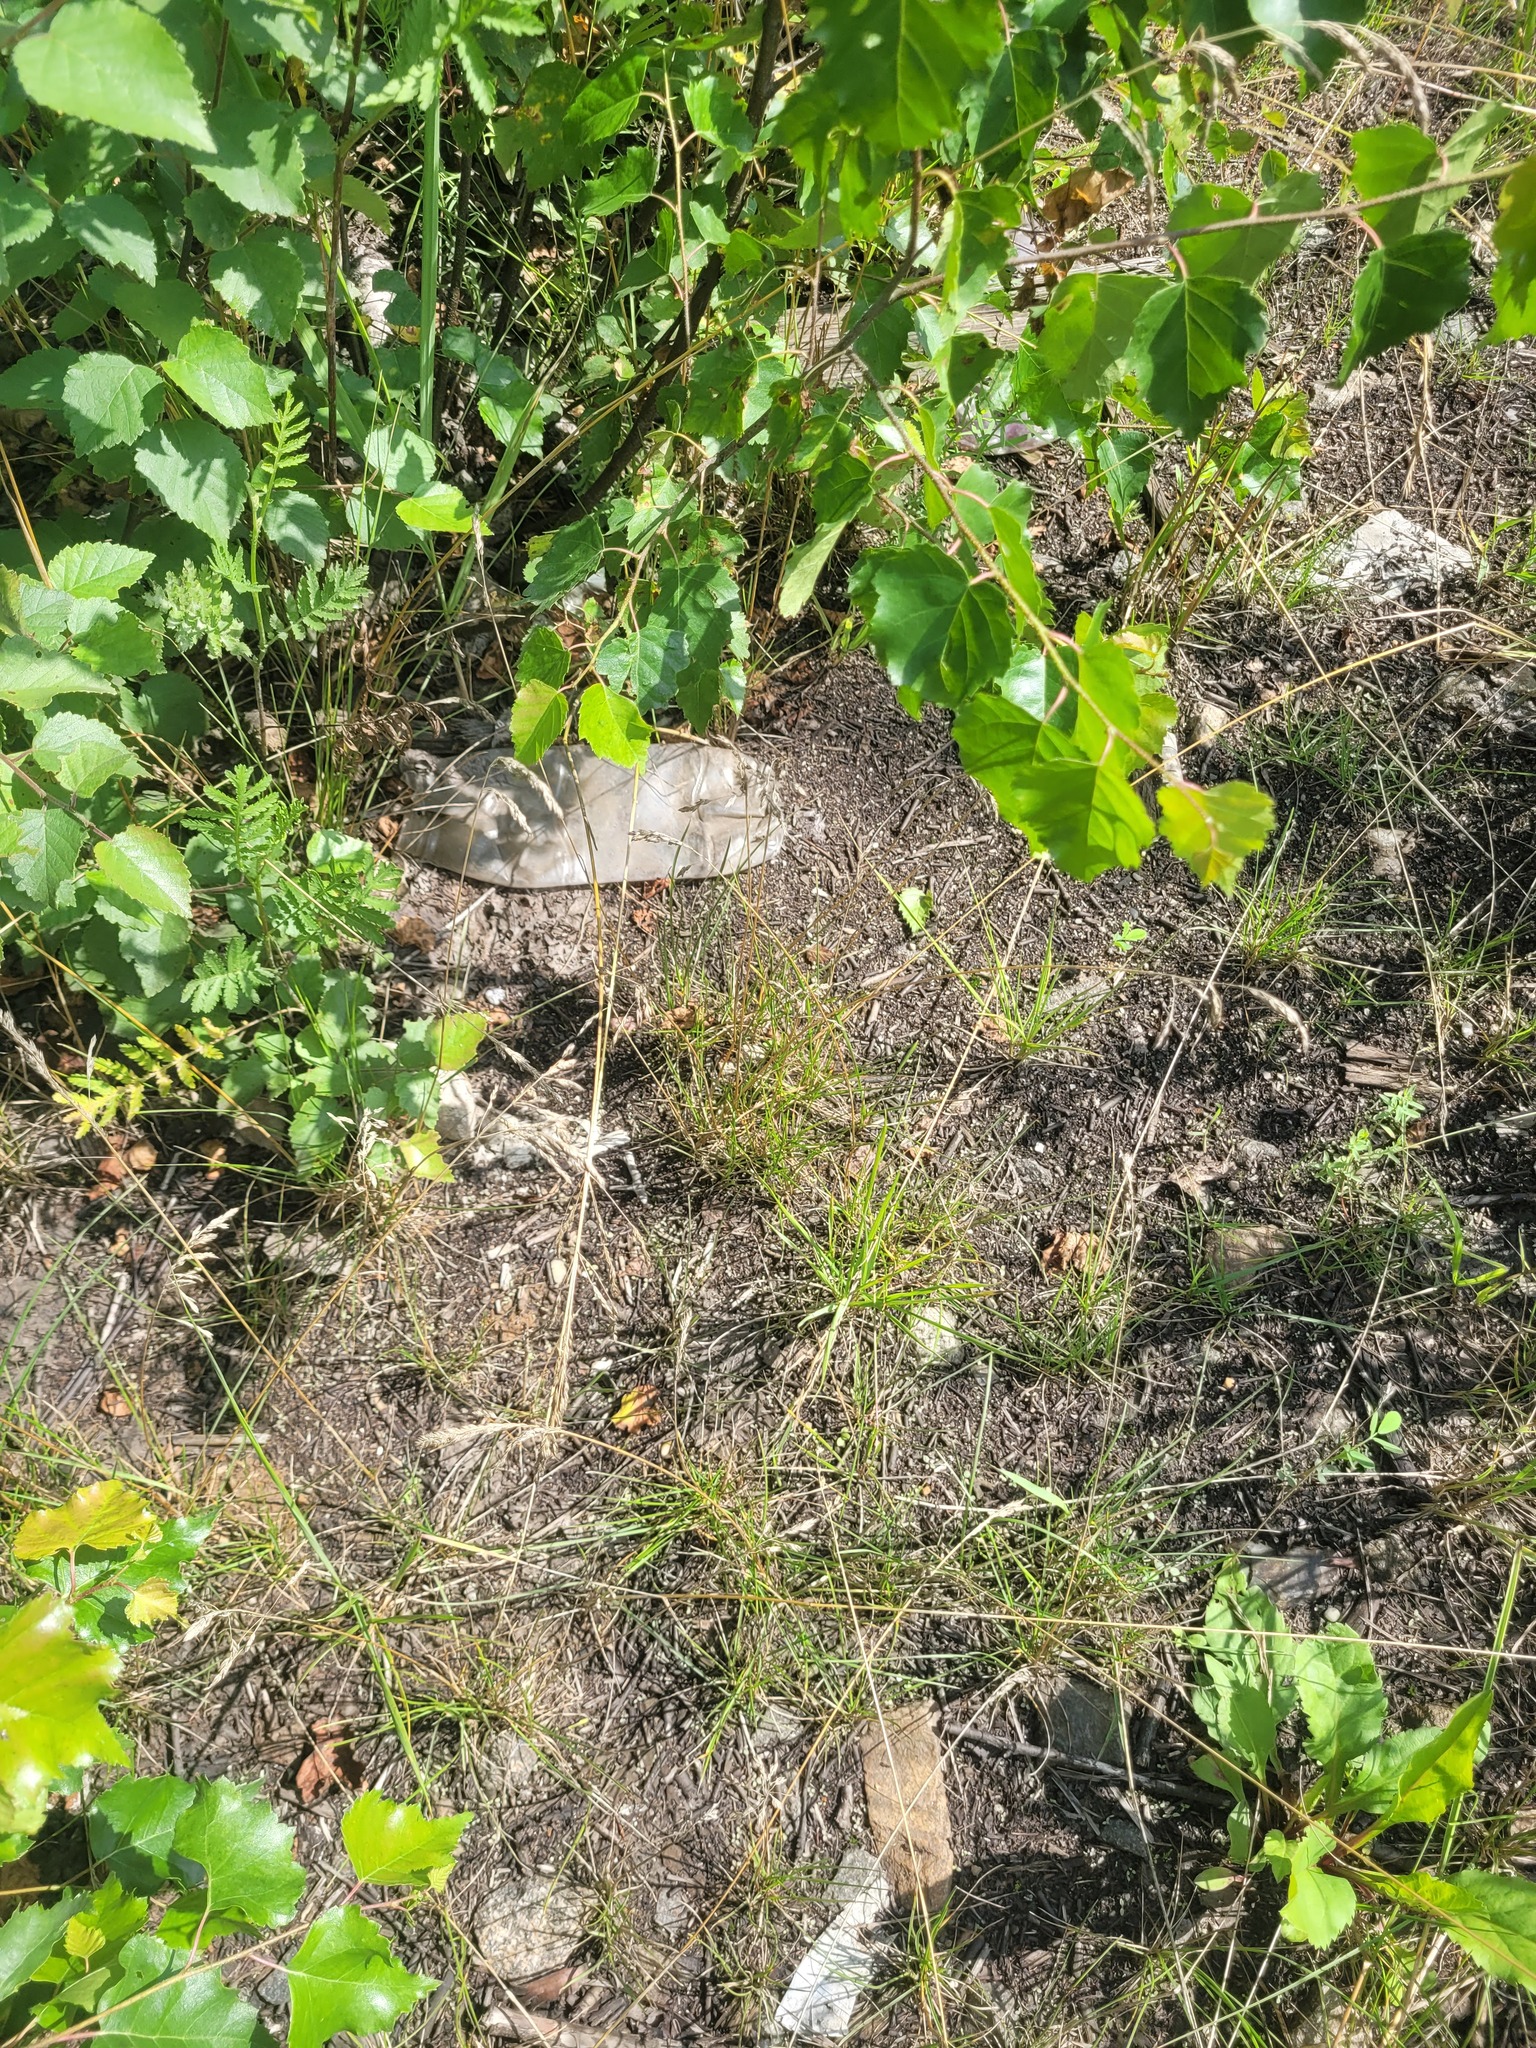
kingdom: Plantae
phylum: Tracheophyta
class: Liliopsida
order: Poales
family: Poaceae
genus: Poa
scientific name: Poa angustifolia
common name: Narrow-leaved meadow-grass
